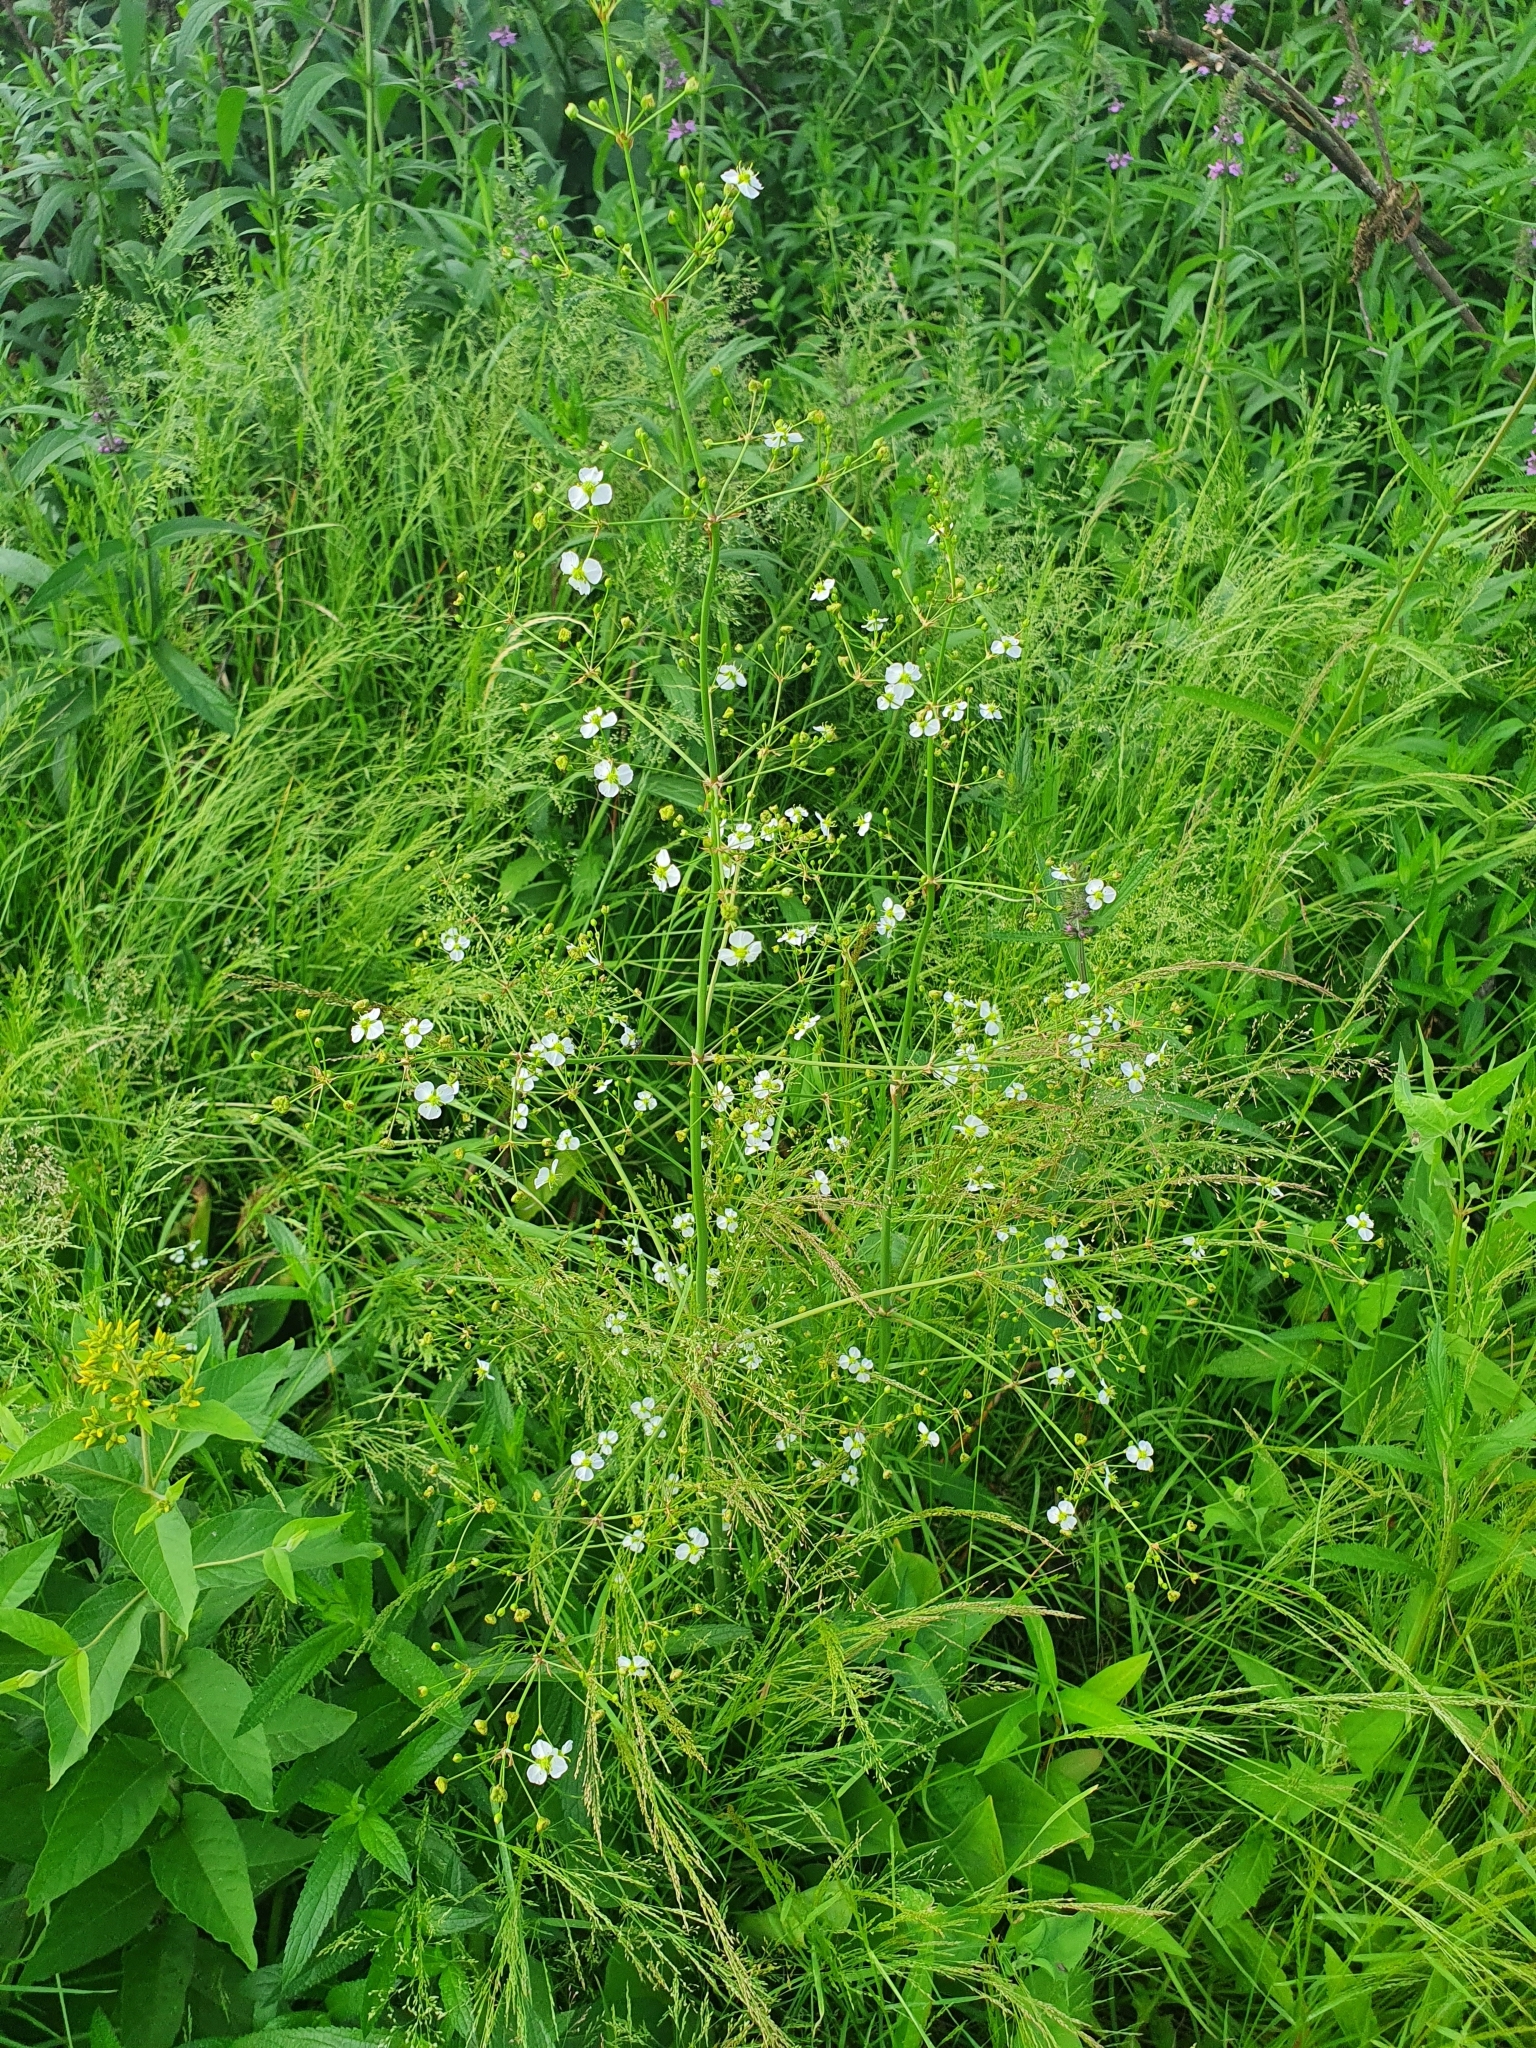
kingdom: Plantae
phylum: Tracheophyta
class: Liliopsida
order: Alismatales
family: Alismataceae
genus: Alisma
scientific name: Alisma plantago-aquatica
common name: Water-plantain
